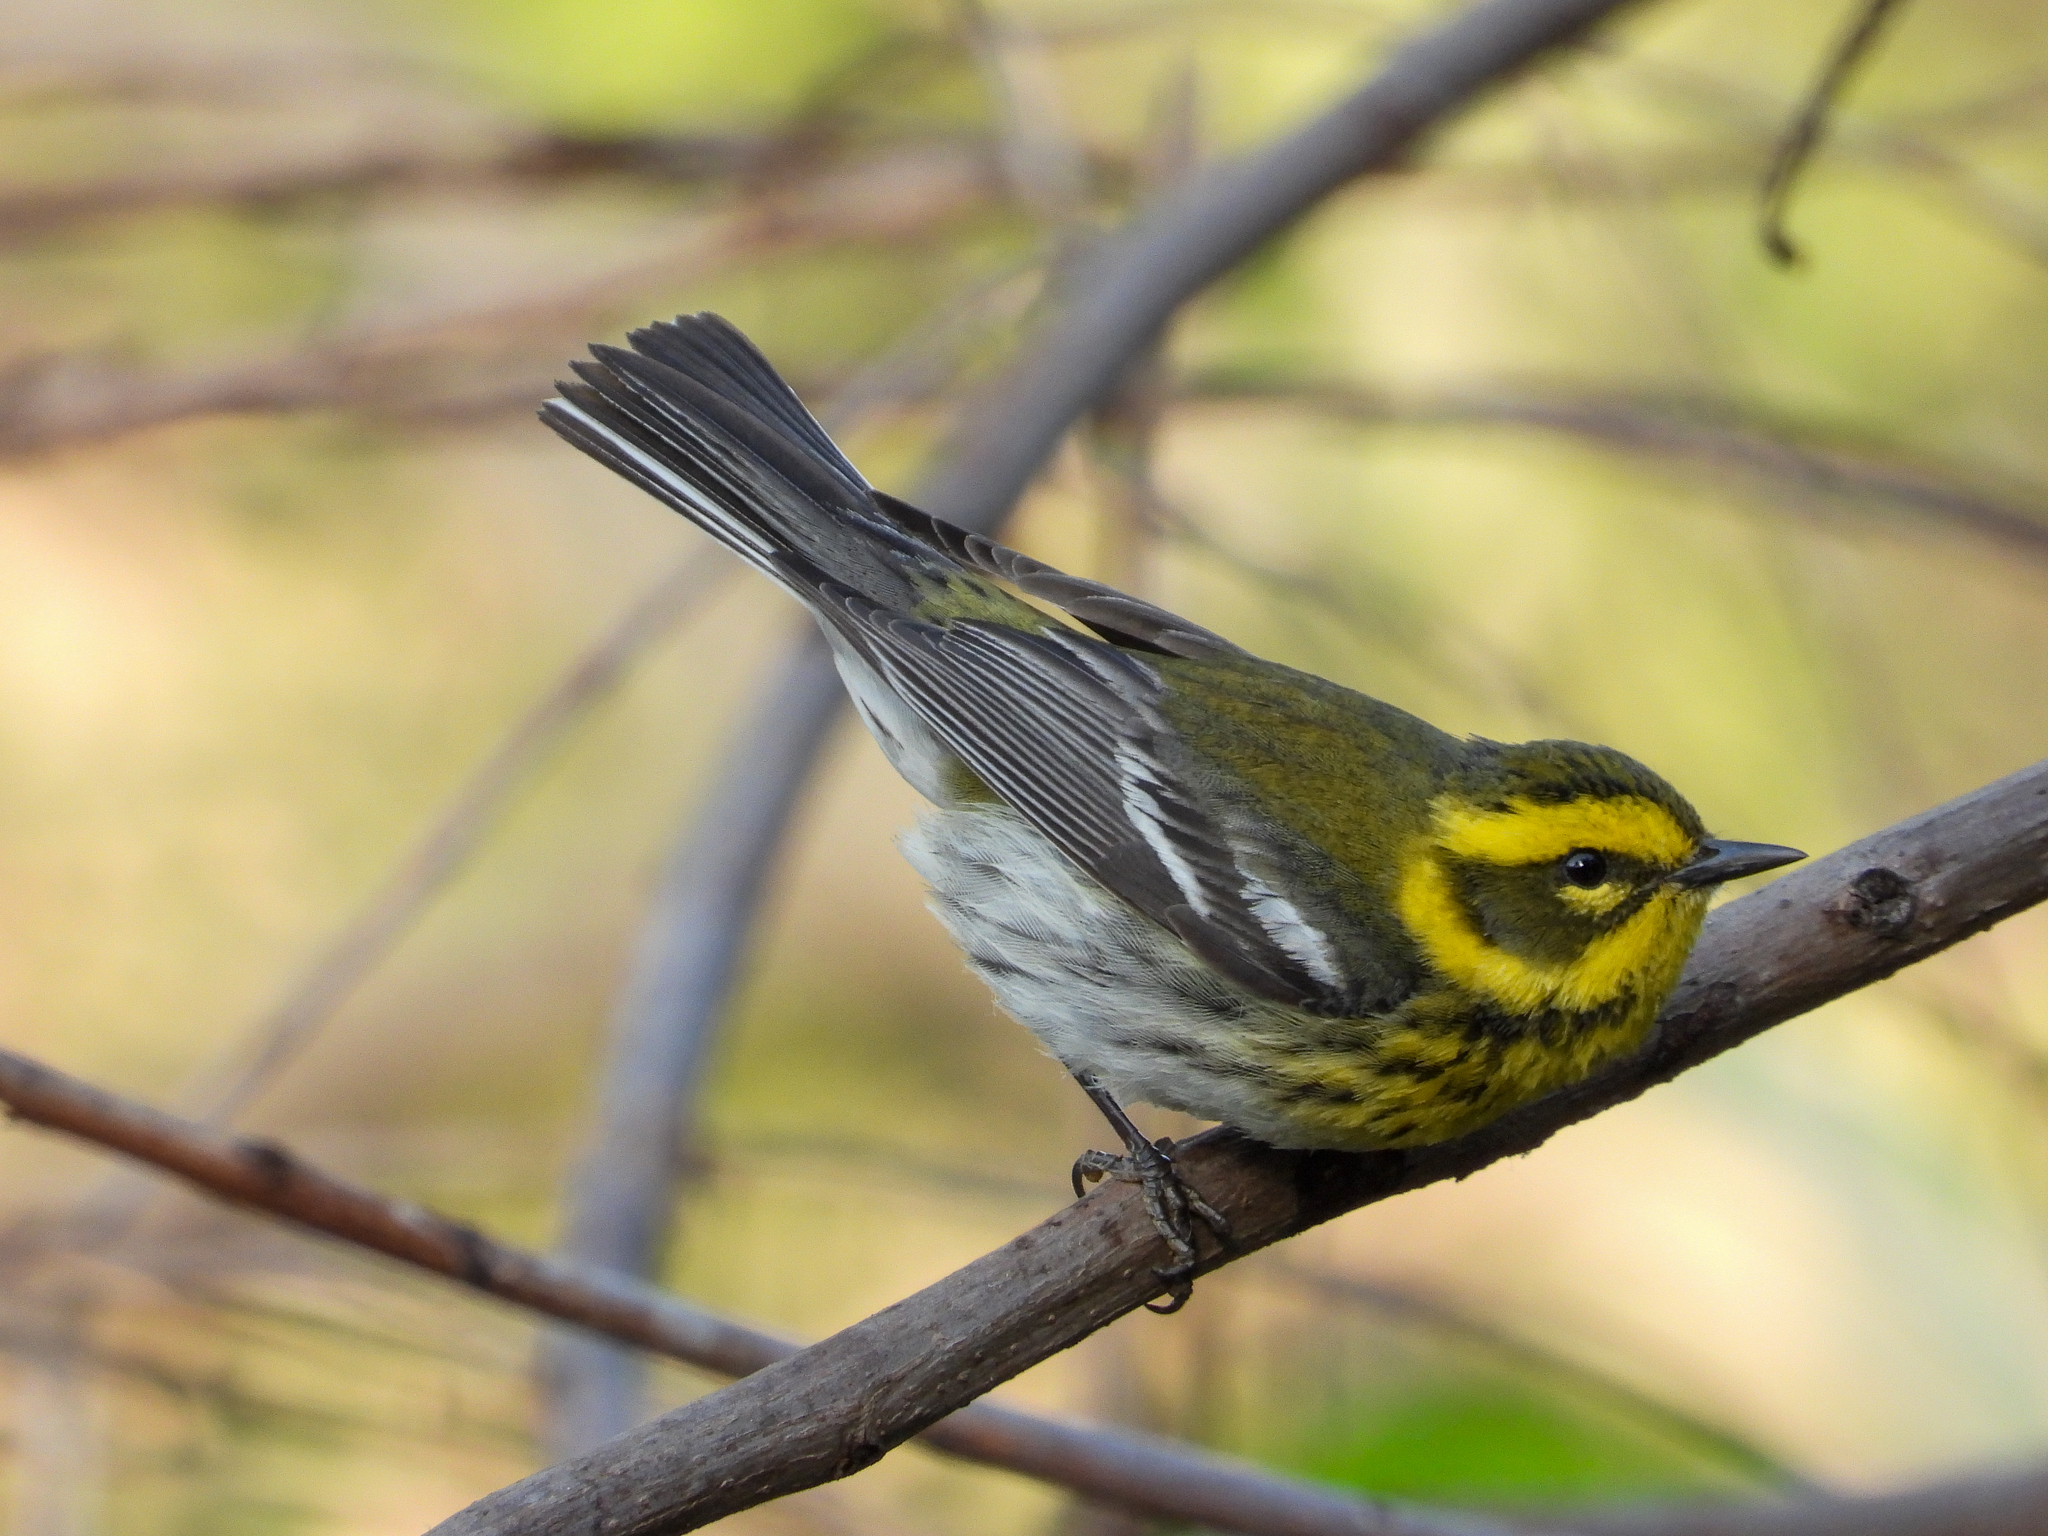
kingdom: Animalia
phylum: Chordata
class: Aves
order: Passeriformes
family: Parulidae
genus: Setophaga
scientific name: Setophaga townsendi
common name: Townsend's warbler
